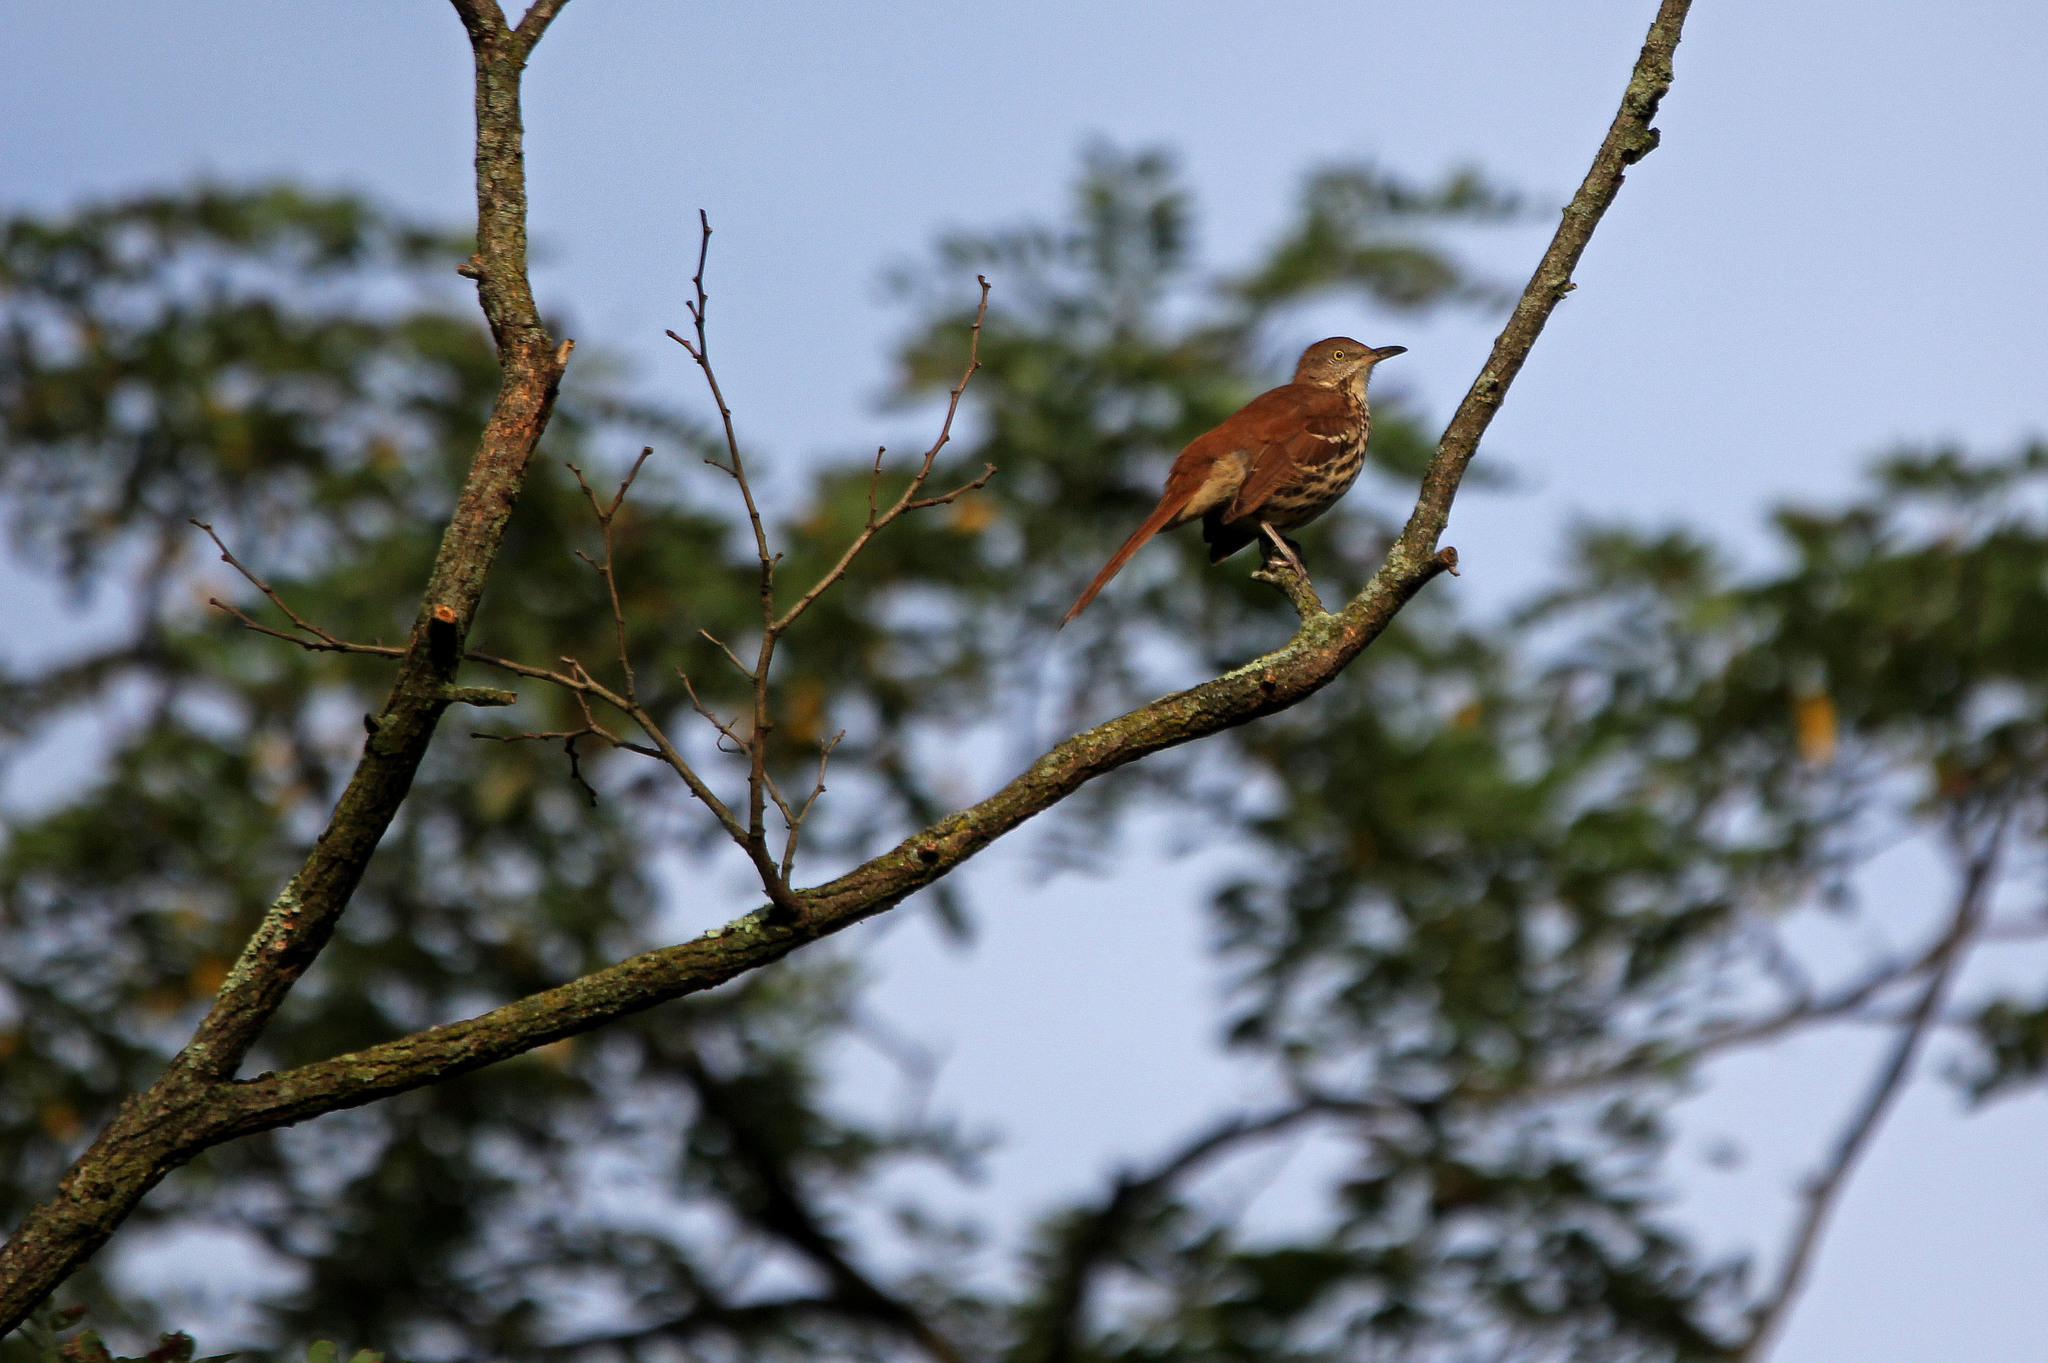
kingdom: Animalia
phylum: Chordata
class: Aves
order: Passeriformes
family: Mimidae
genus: Toxostoma
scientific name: Toxostoma rufum
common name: Brown thrasher
